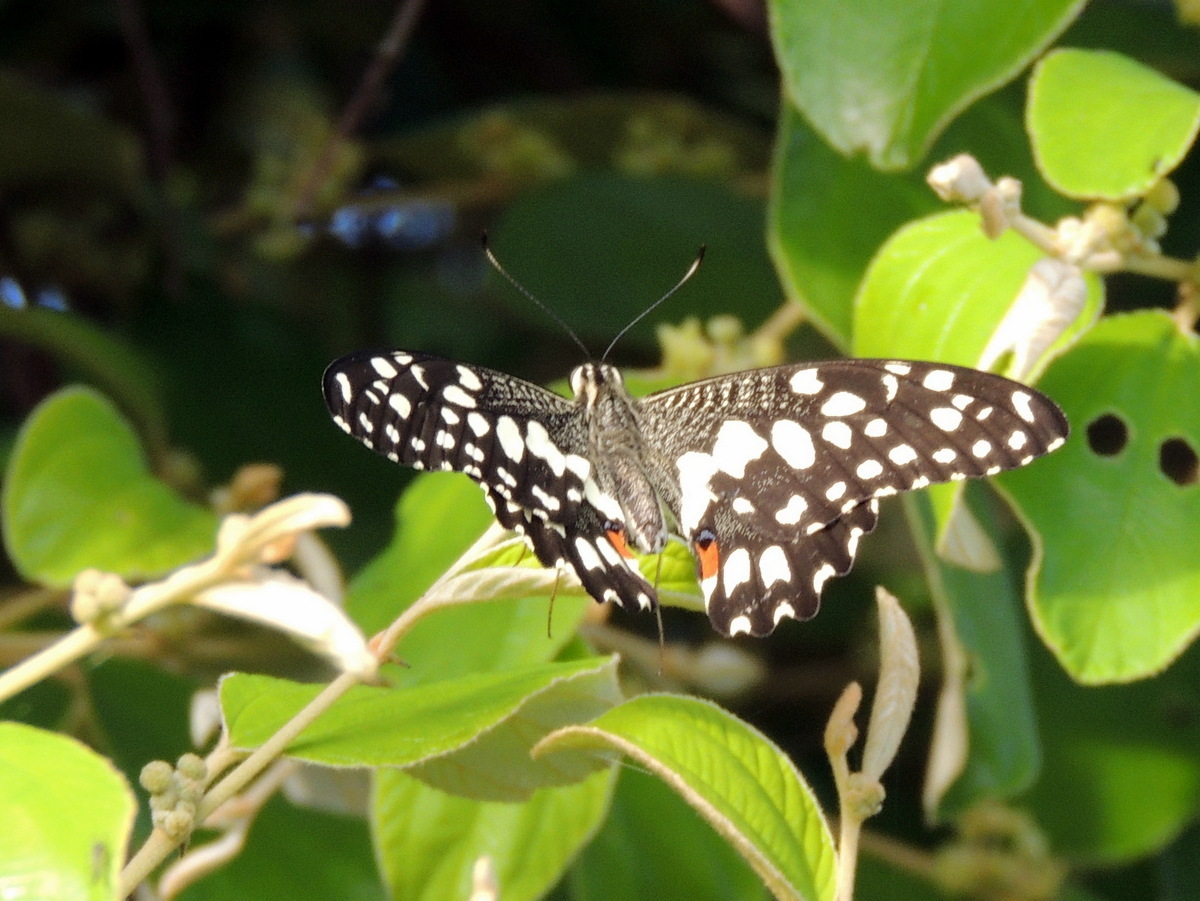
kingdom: Animalia
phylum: Arthropoda
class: Insecta
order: Lepidoptera
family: Papilionidae
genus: Papilio
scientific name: Papilio demoleus
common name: Lime butterfly
